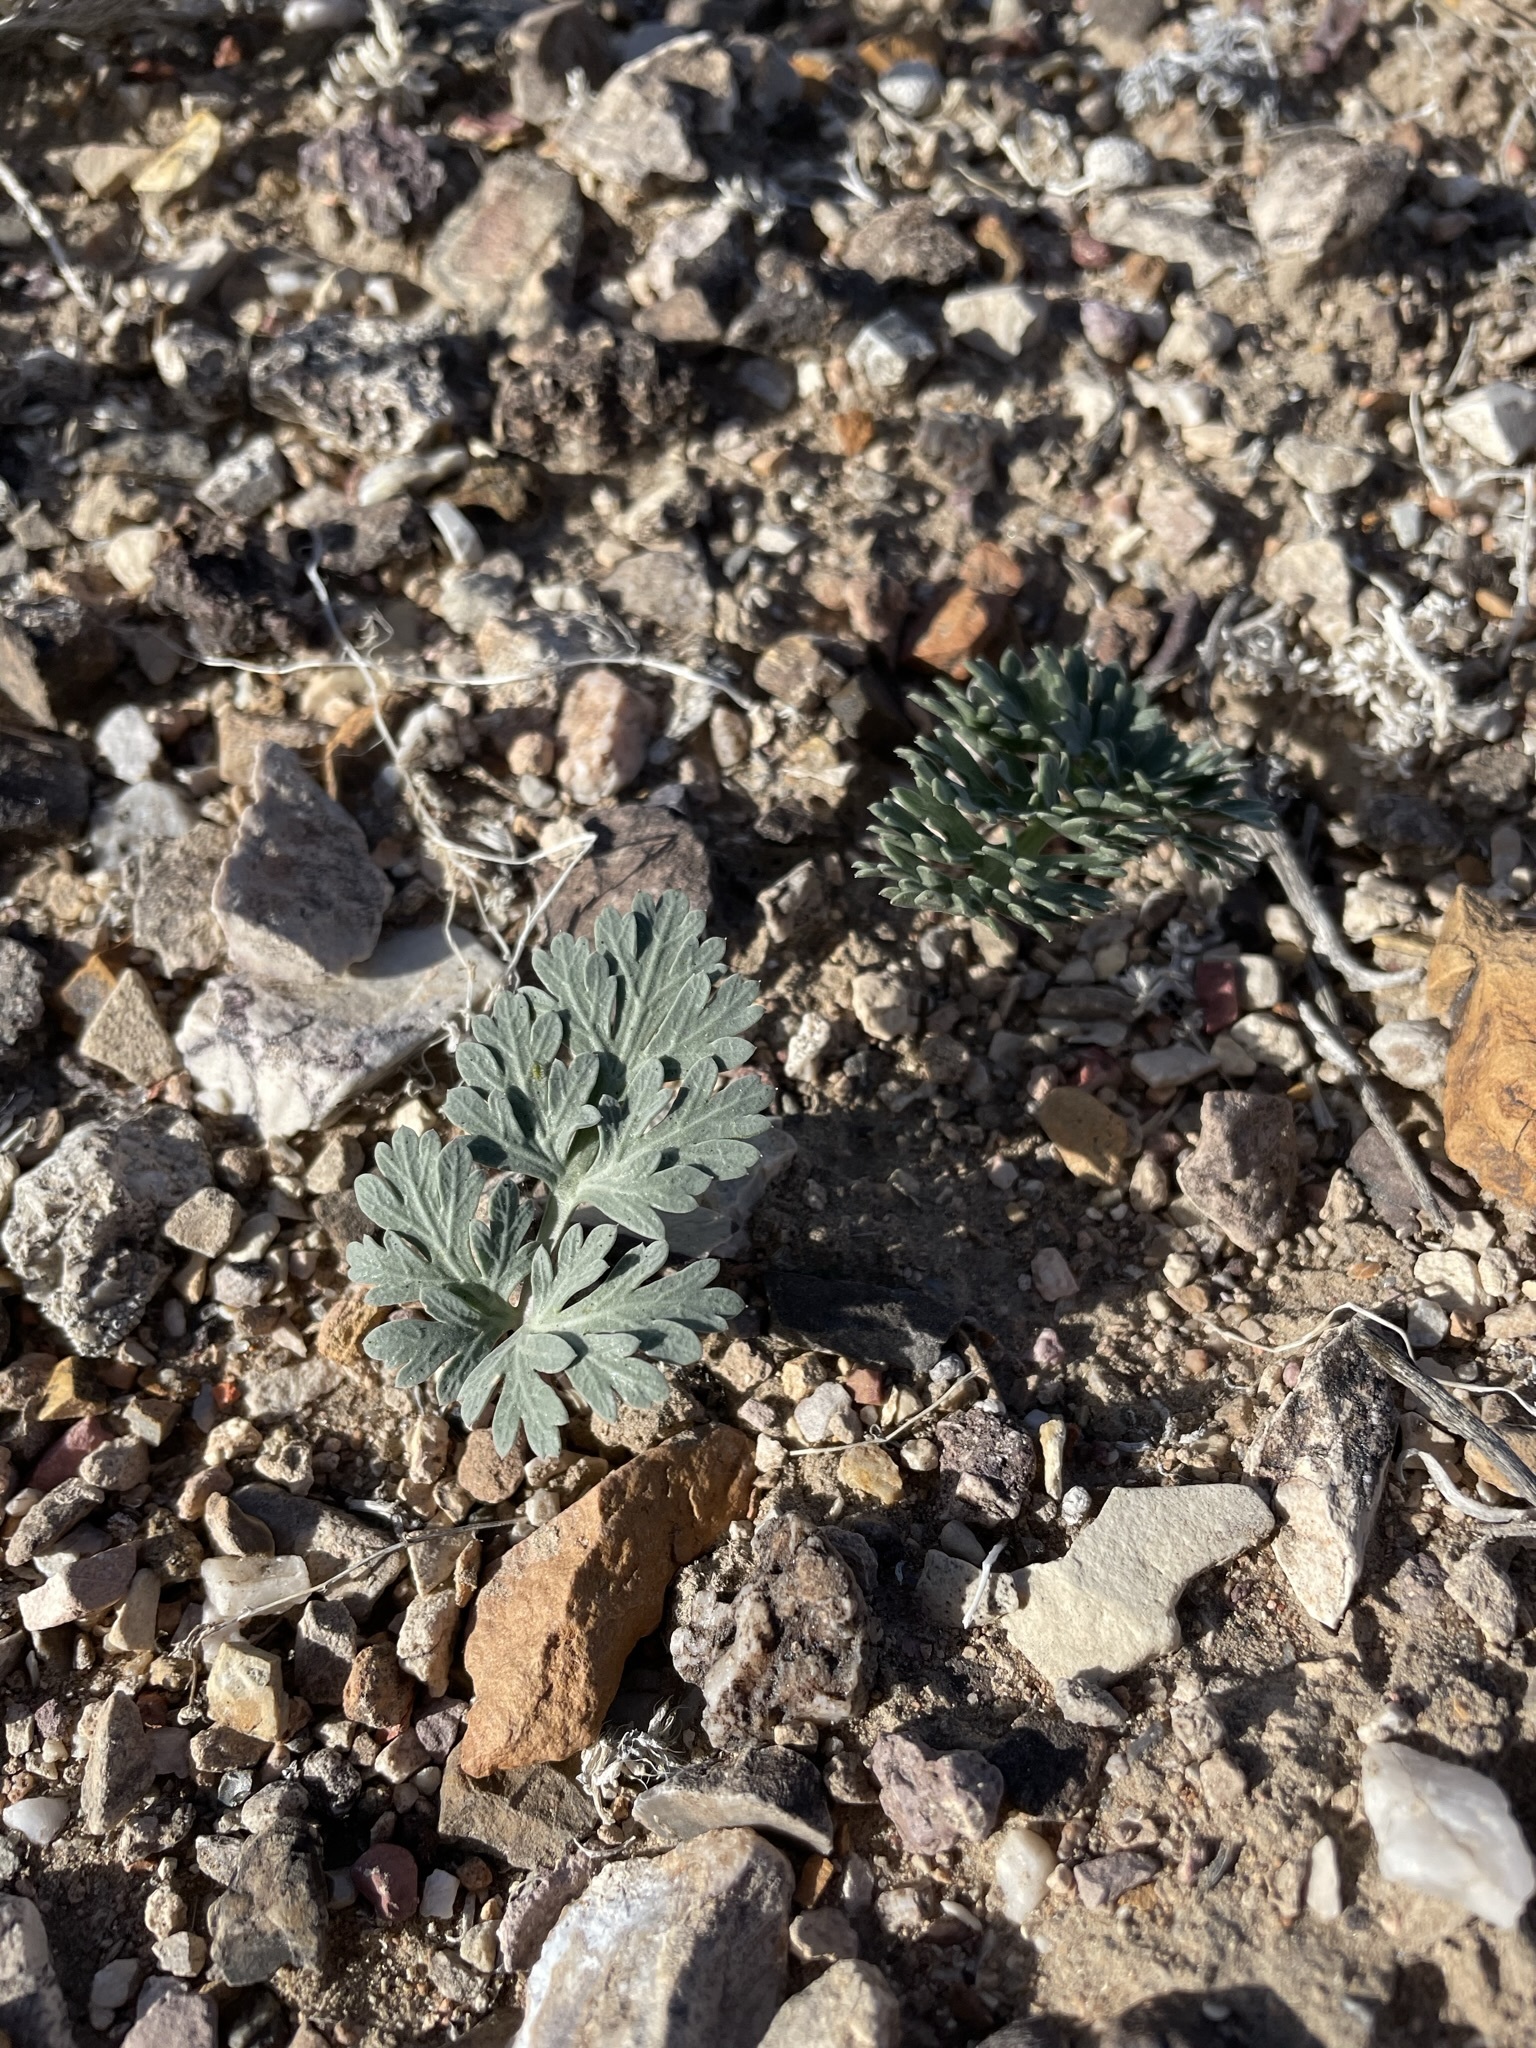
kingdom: Plantae
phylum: Tracheophyta
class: Magnoliopsida
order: Apiales
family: Apiaceae
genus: Cymopterus
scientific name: Cymopterus globosus
